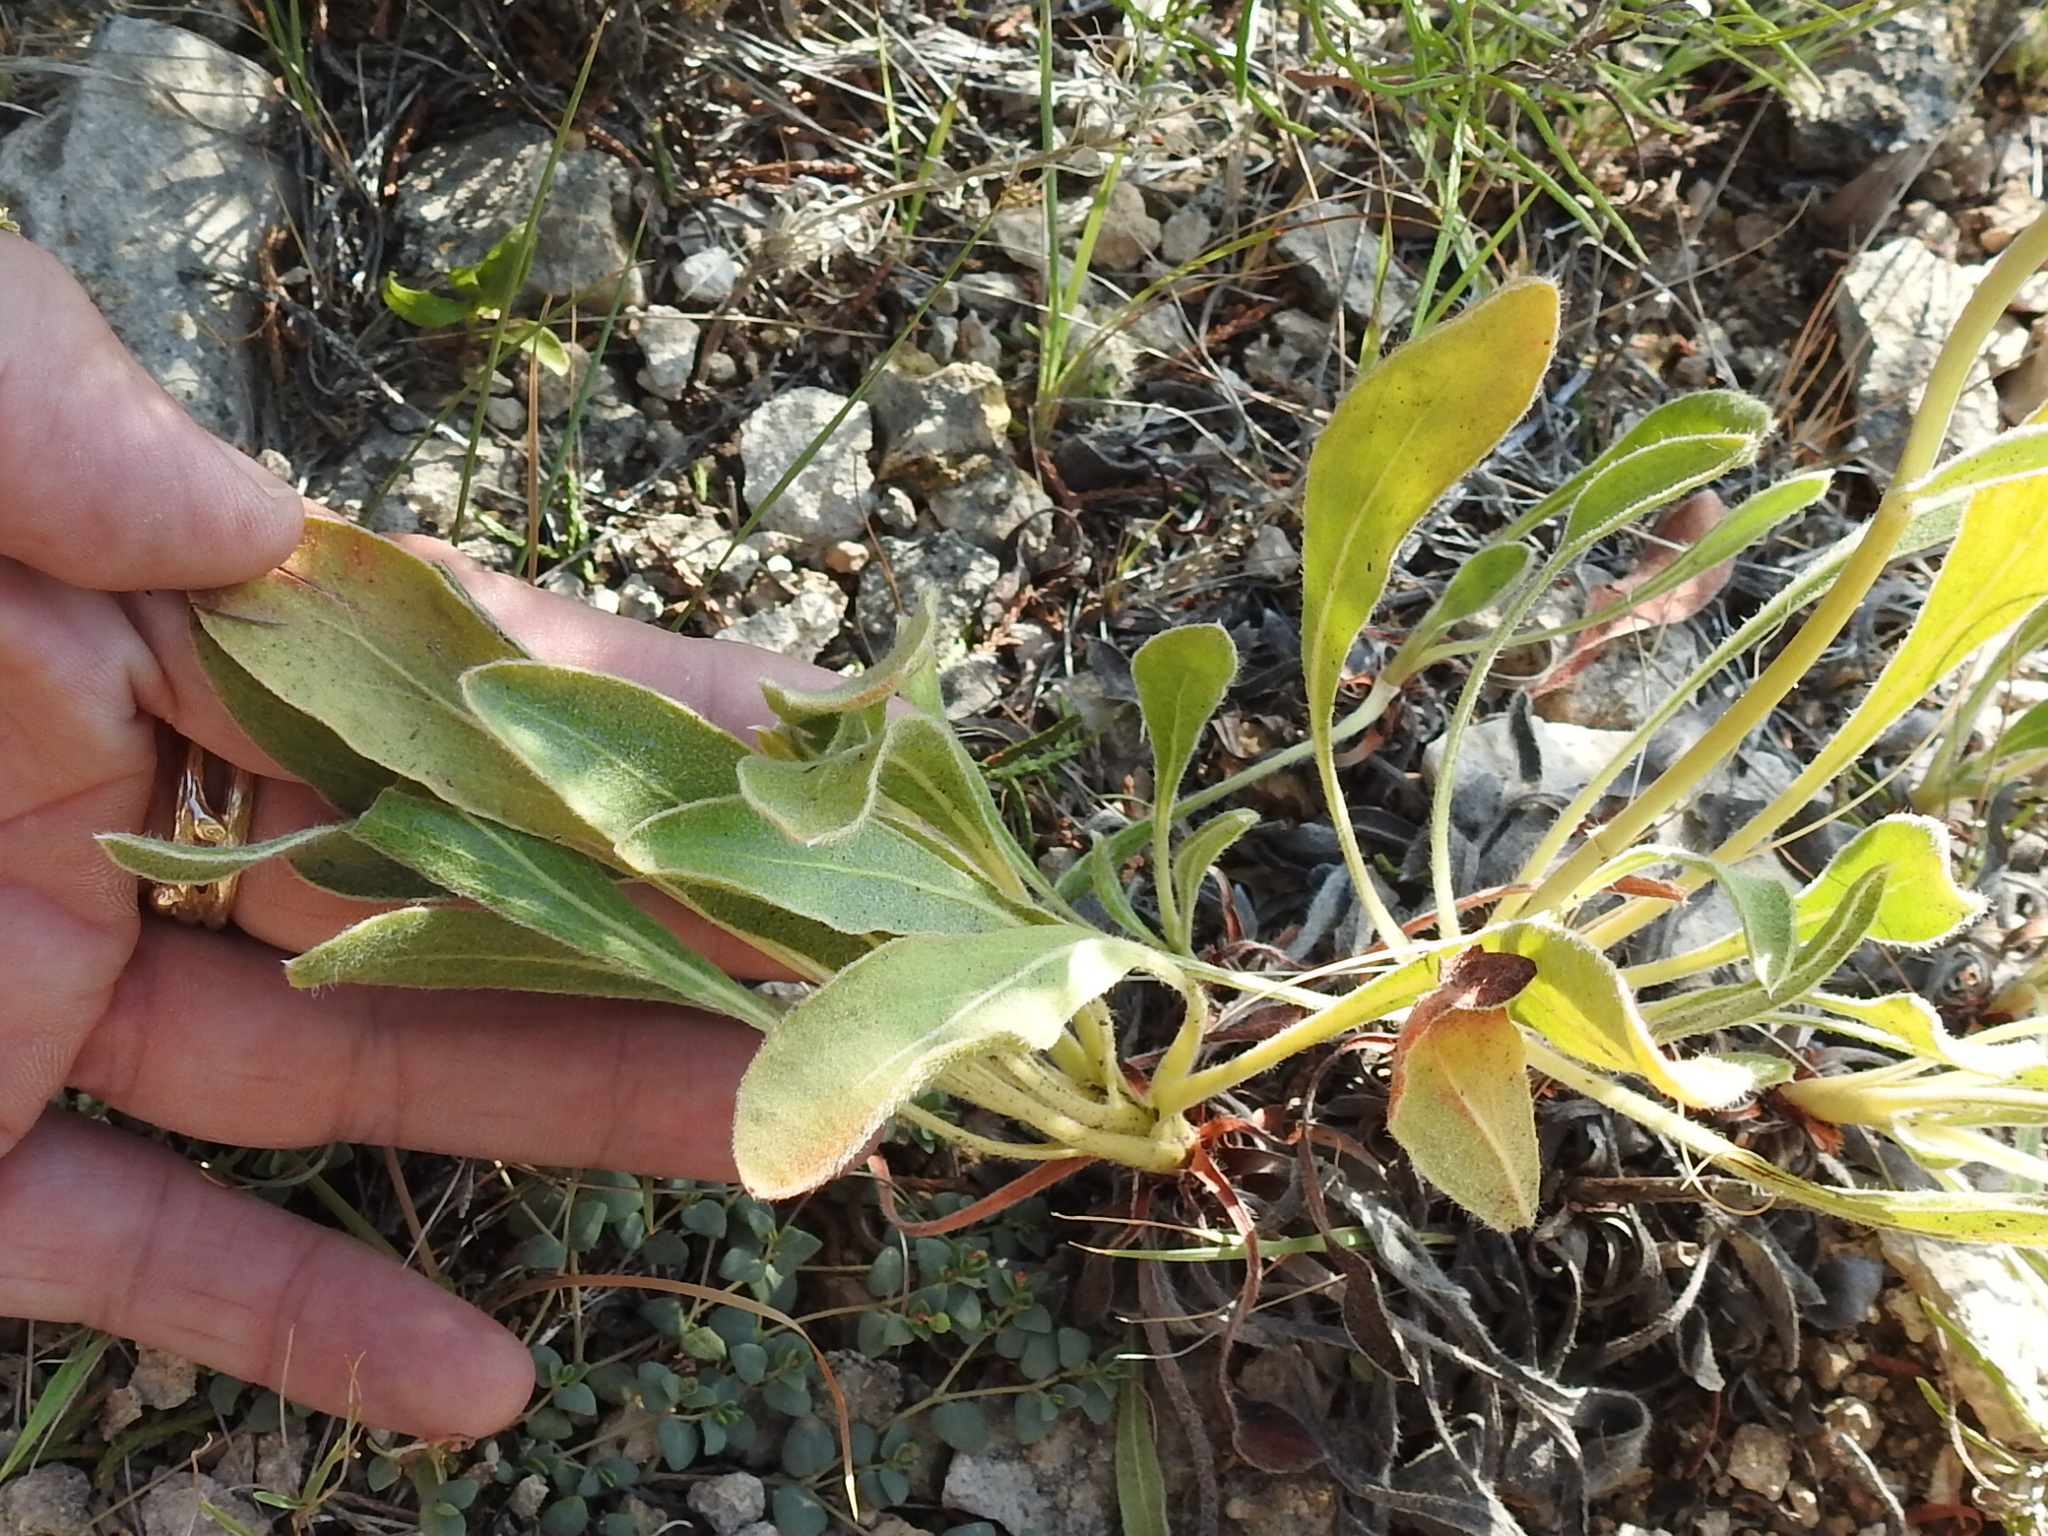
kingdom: Plantae
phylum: Tracheophyta
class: Magnoliopsida
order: Caryophyllales
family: Polygonaceae
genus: Eriogonum
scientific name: Eriogonum nealleyi
